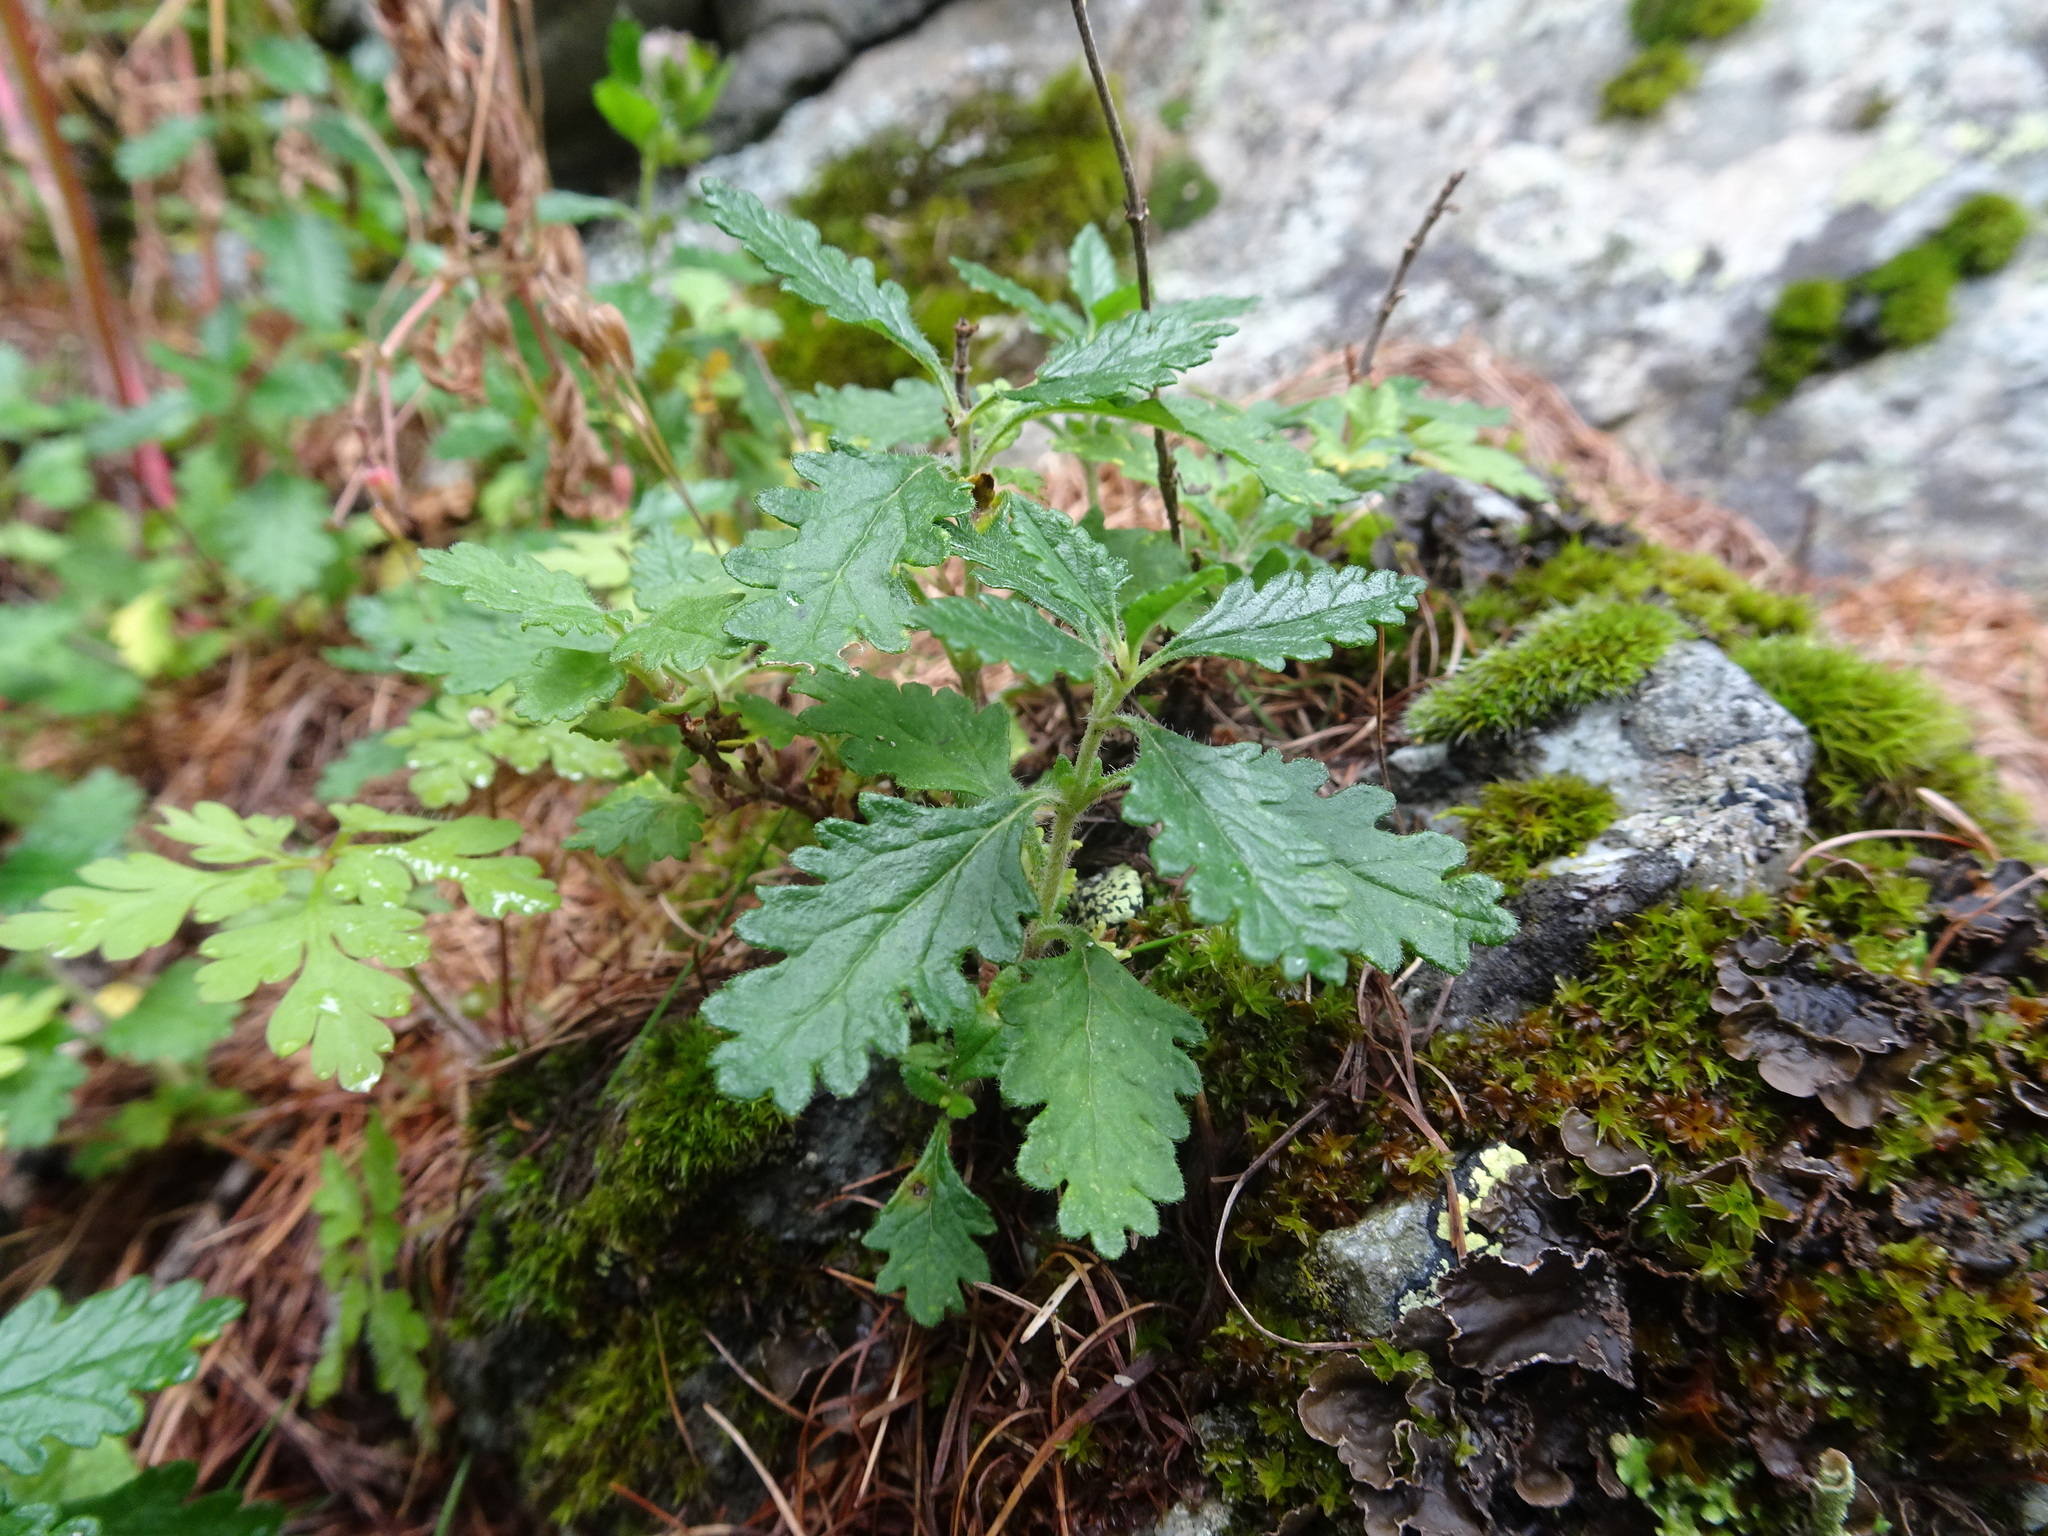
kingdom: Plantae
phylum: Tracheophyta
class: Magnoliopsida
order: Lamiales
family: Lamiaceae
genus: Teucrium
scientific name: Teucrium chamaedrys
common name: Wall germander
